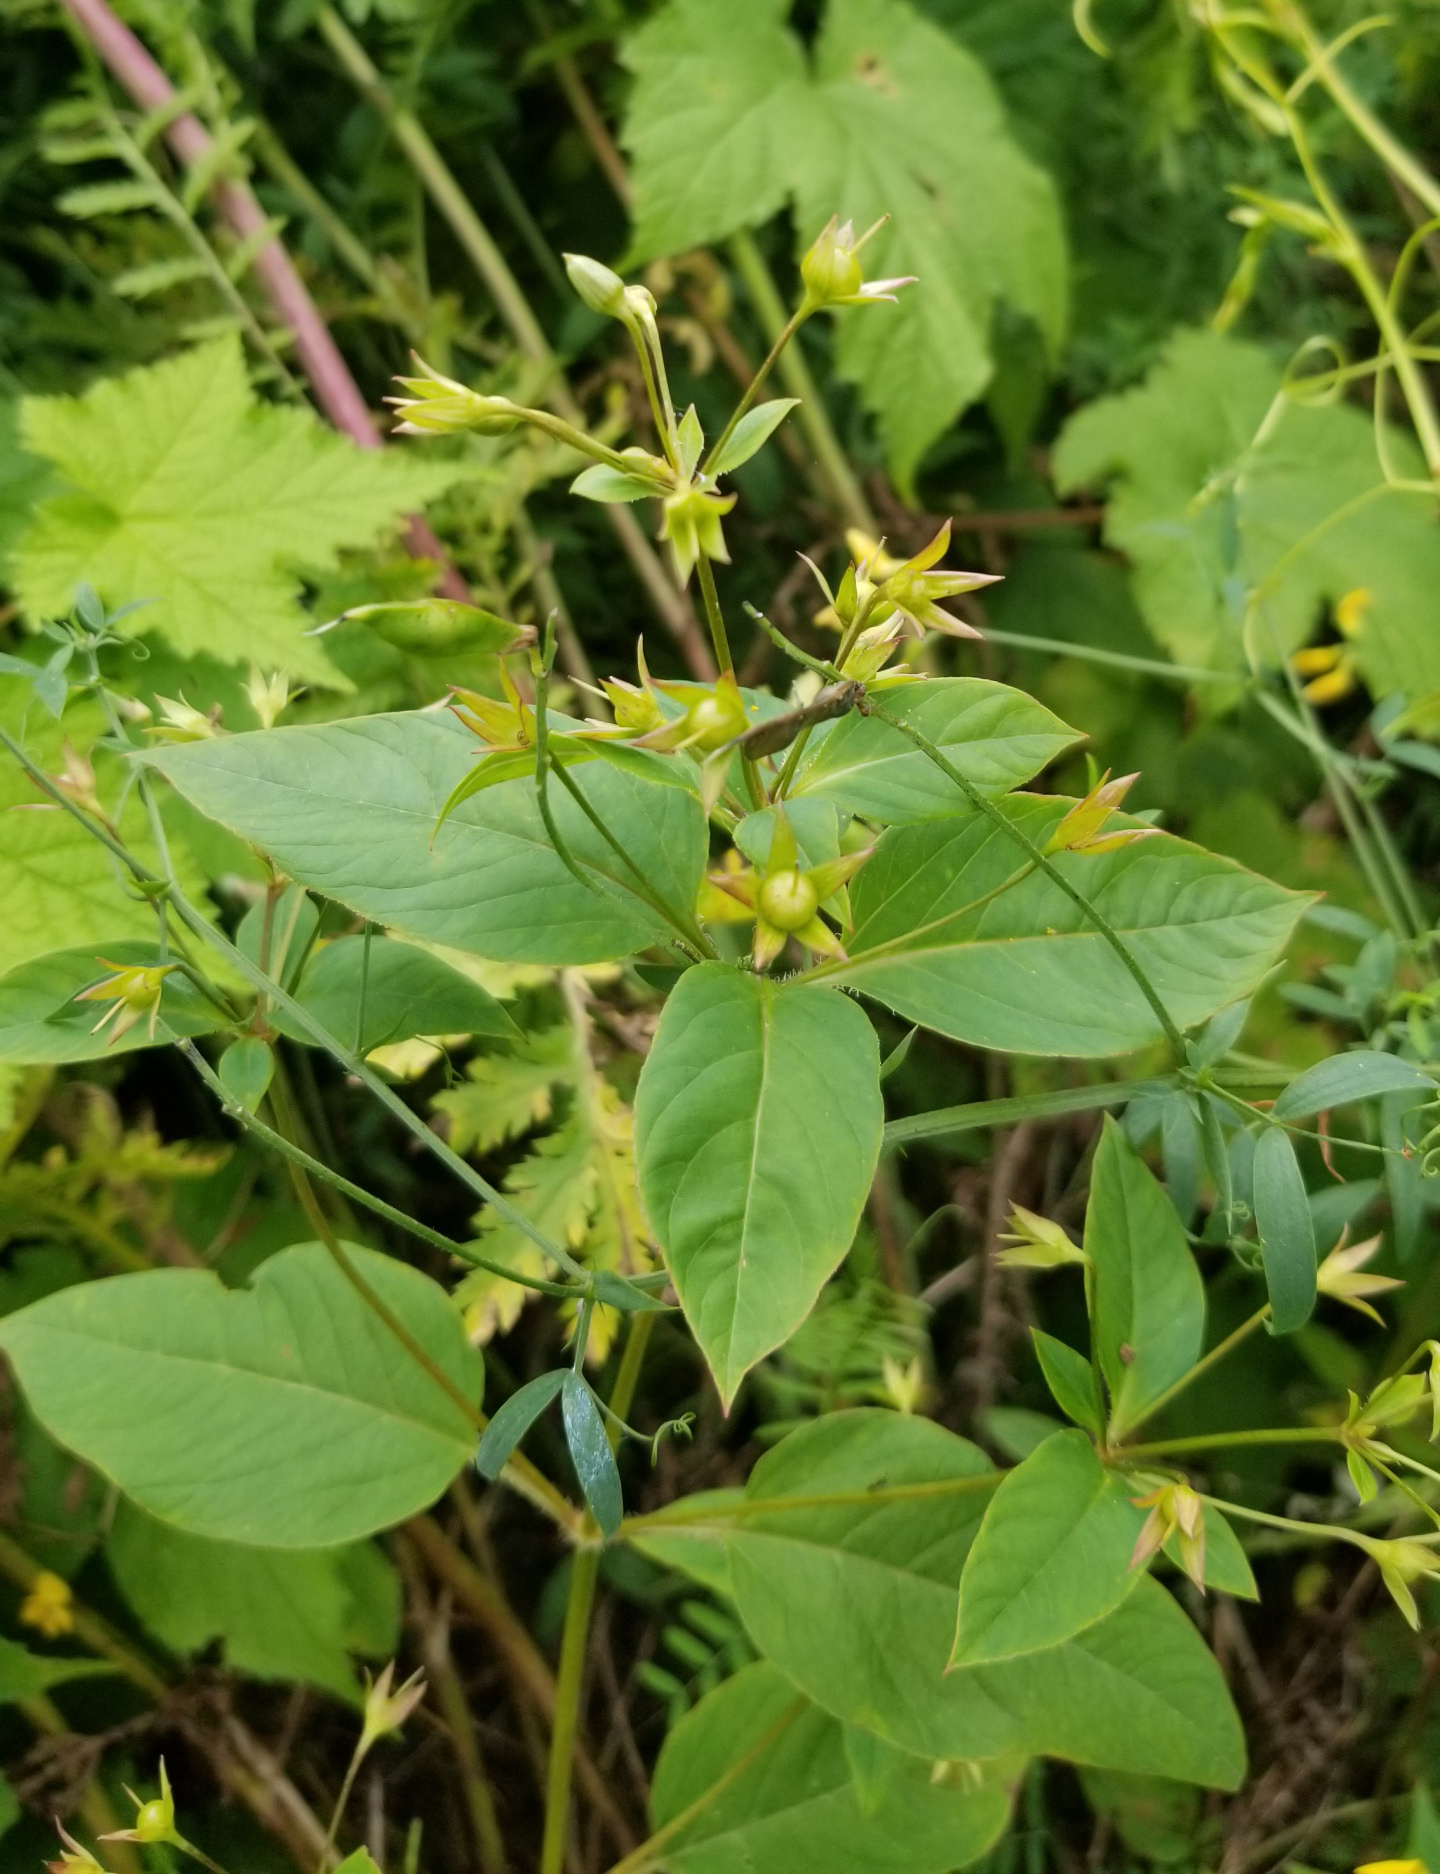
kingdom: Plantae
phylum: Tracheophyta
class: Magnoliopsida
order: Ericales
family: Primulaceae
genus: Lysimachia
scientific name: Lysimachia ciliata
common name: Fringed loosestrife
